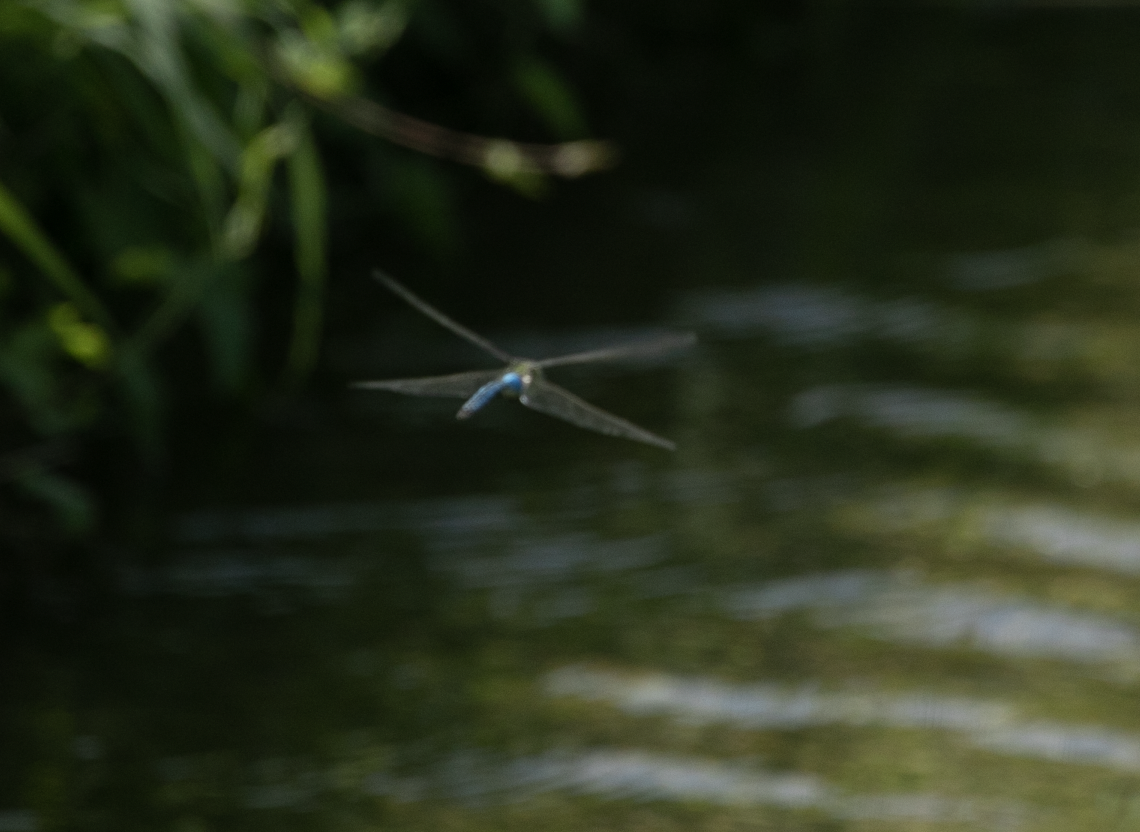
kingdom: Animalia
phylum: Arthropoda
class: Insecta
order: Odonata
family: Aeshnidae
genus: Anax
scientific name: Anax imperator
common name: Emperor dragonfly
